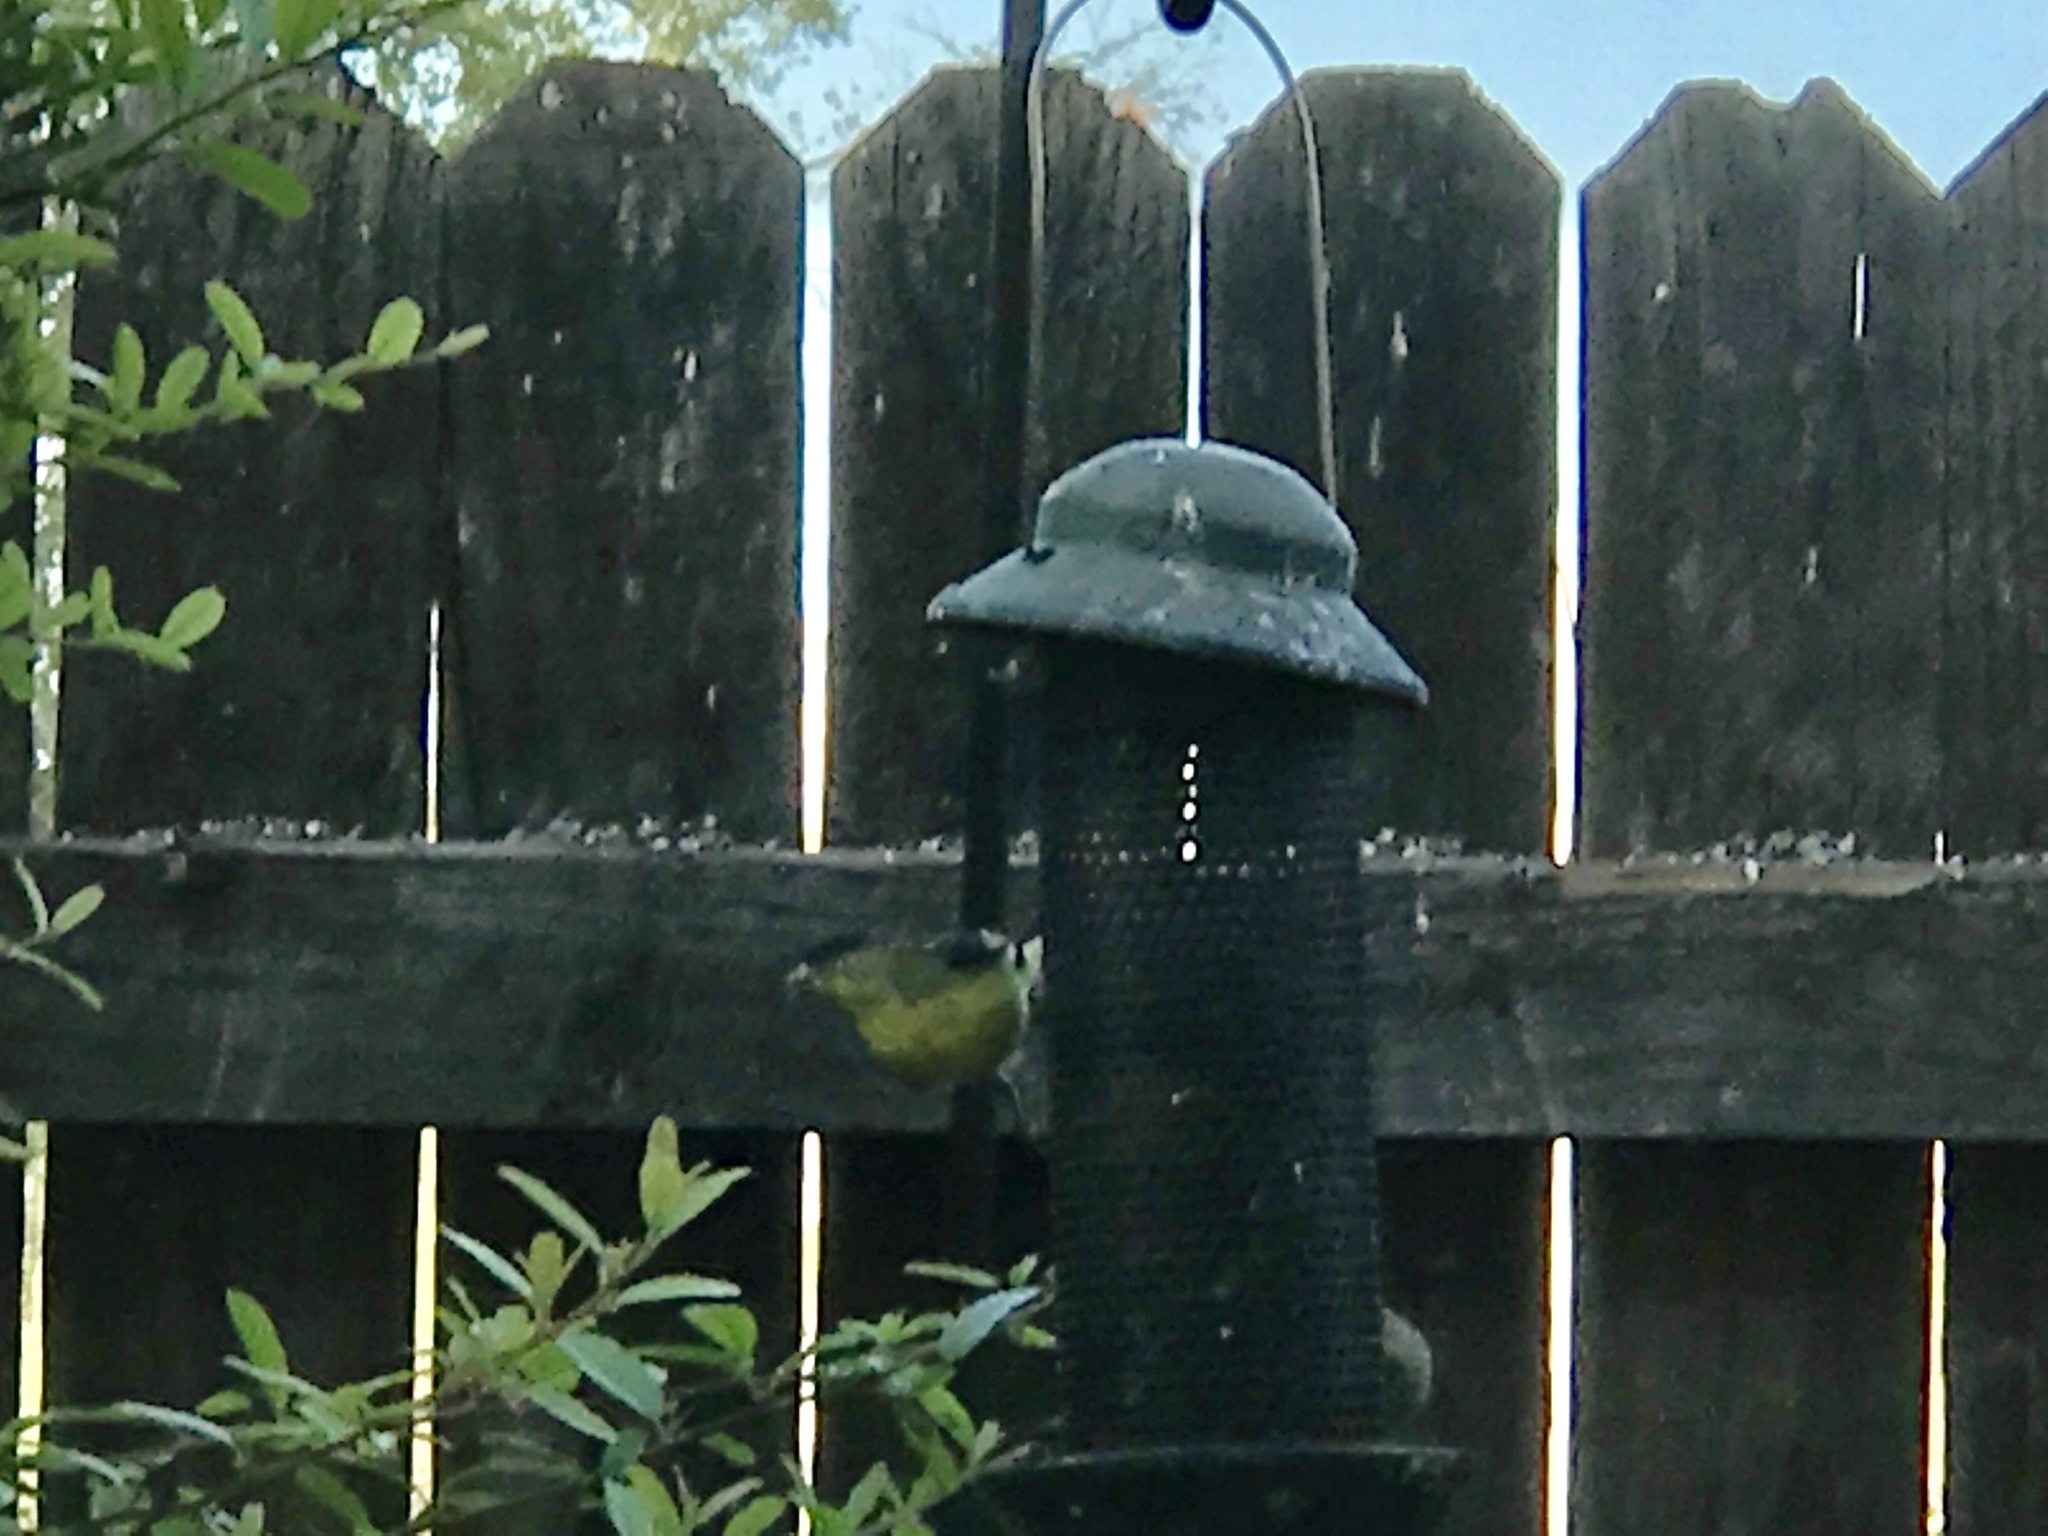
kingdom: Animalia
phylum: Chordata
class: Aves
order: Passeriformes
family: Fringillidae
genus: Spinus
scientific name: Spinus psaltria
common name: Lesser goldfinch
